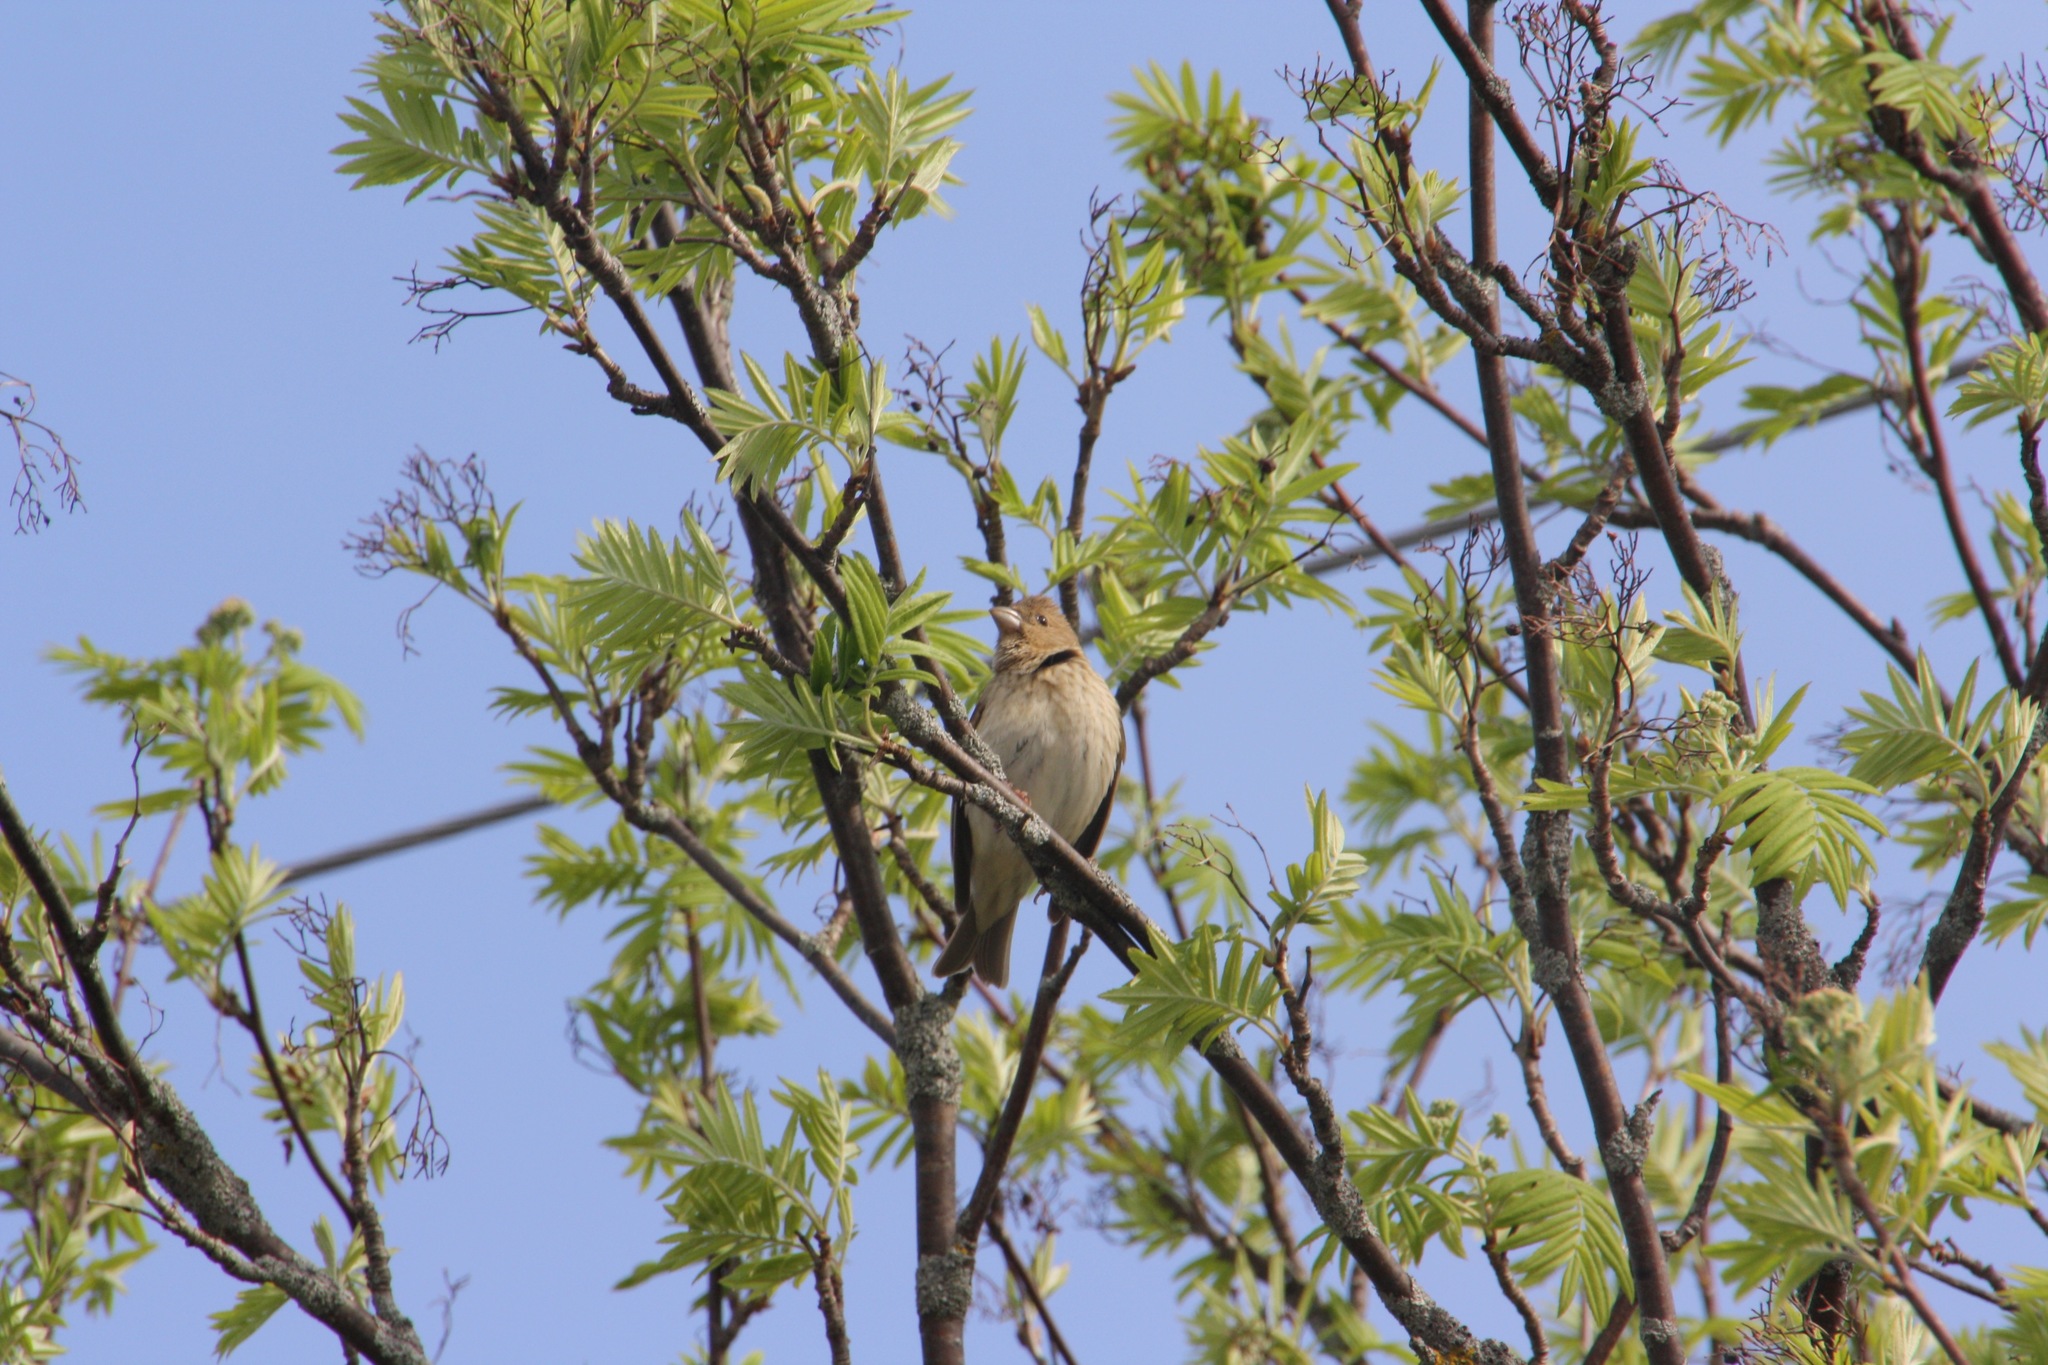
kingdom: Animalia
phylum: Chordata
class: Aves
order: Passeriformes
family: Fringillidae
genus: Carpodacus
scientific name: Carpodacus erythrinus
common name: Common rosefinch
